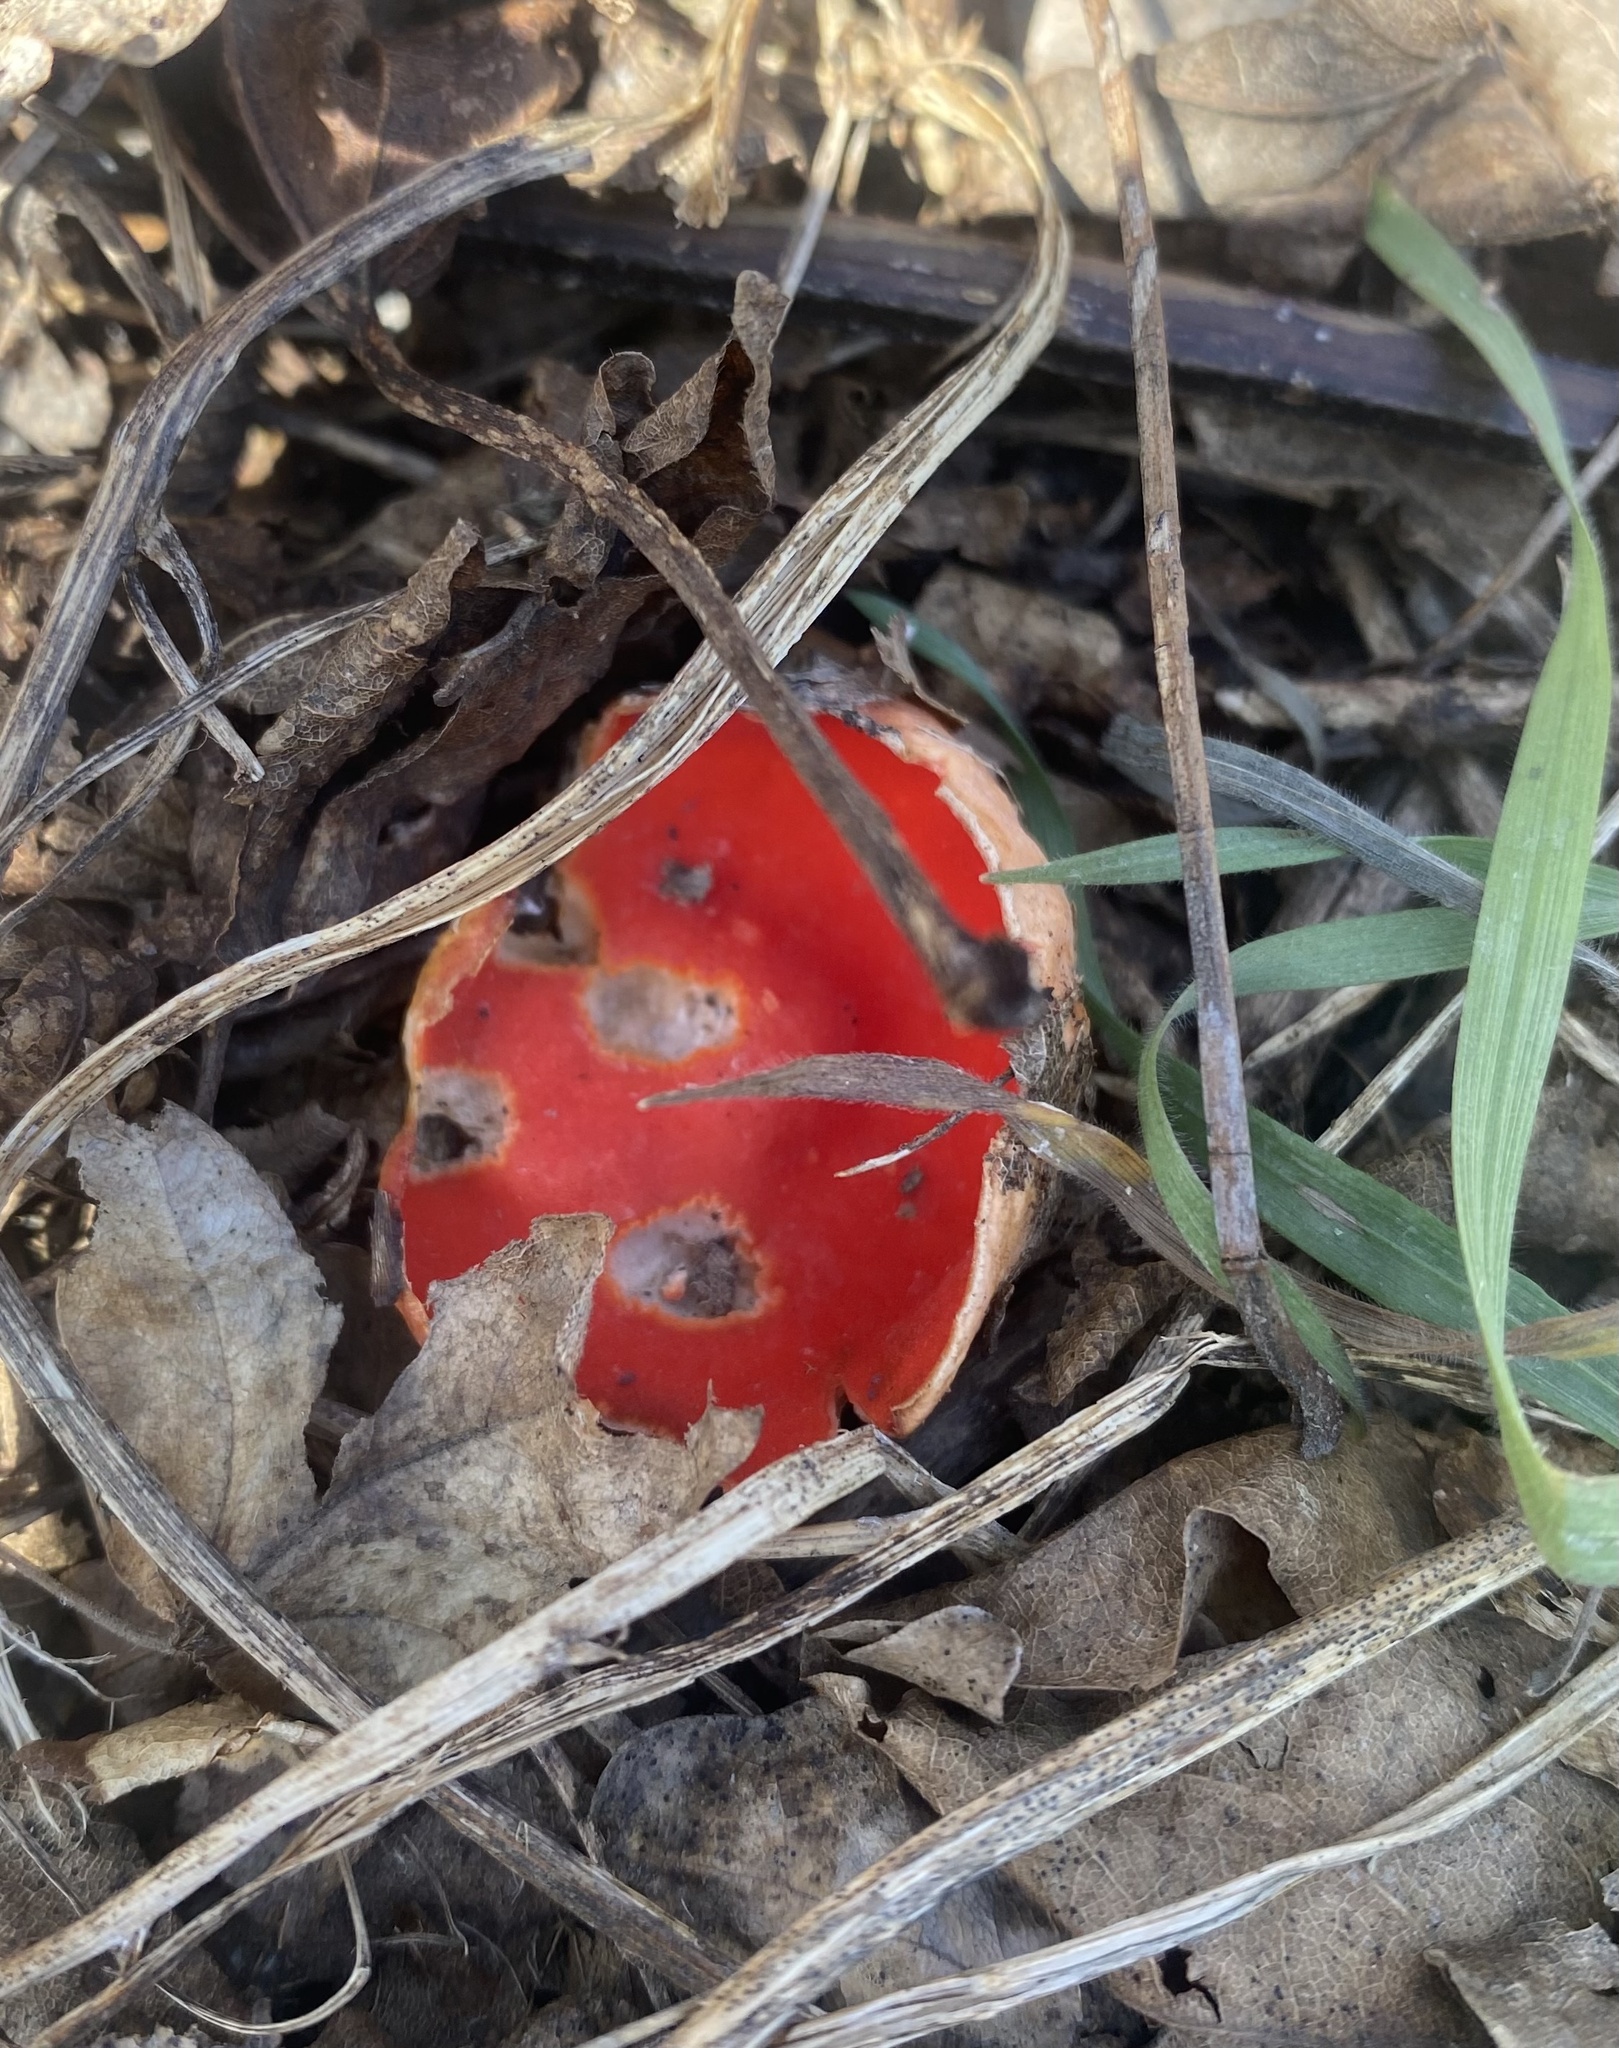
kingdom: Fungi
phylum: Ascomycota
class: Pezizomycetes
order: Pezizales
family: Sarcoscyphaceae
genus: Sarcoscypha
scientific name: Sarcoscypha
